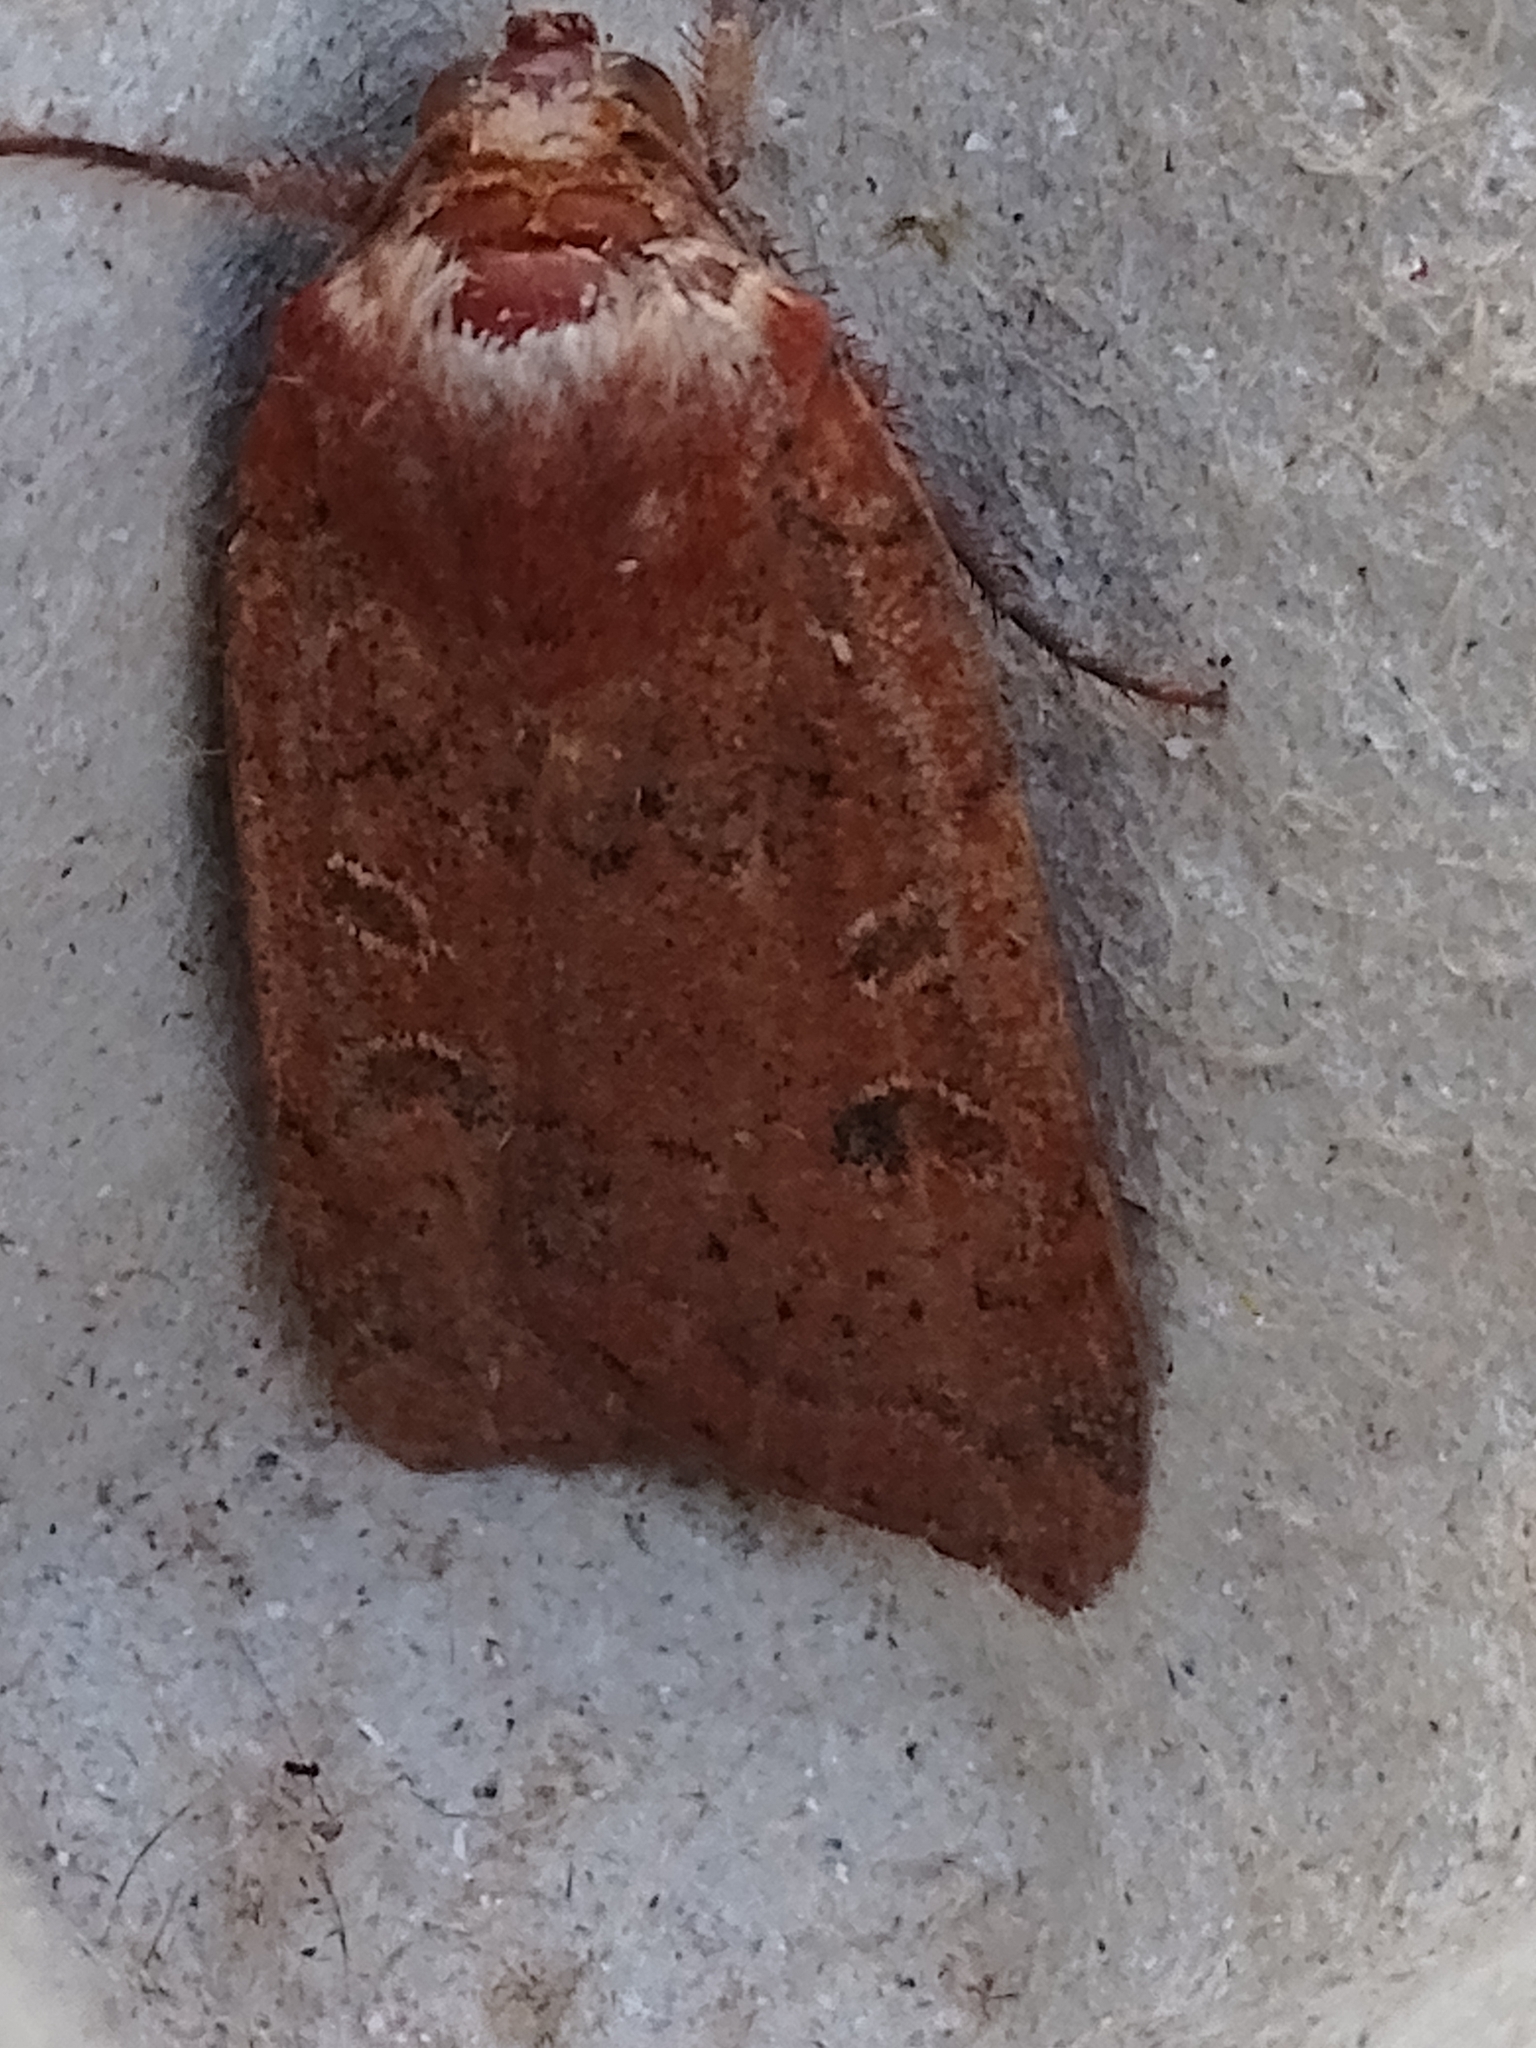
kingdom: Animalia
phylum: Arthropoda
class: Insecta
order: Lepidoptera
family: Noctuidae
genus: Noctua
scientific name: Noctua comes
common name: Lesser yellow underwing
